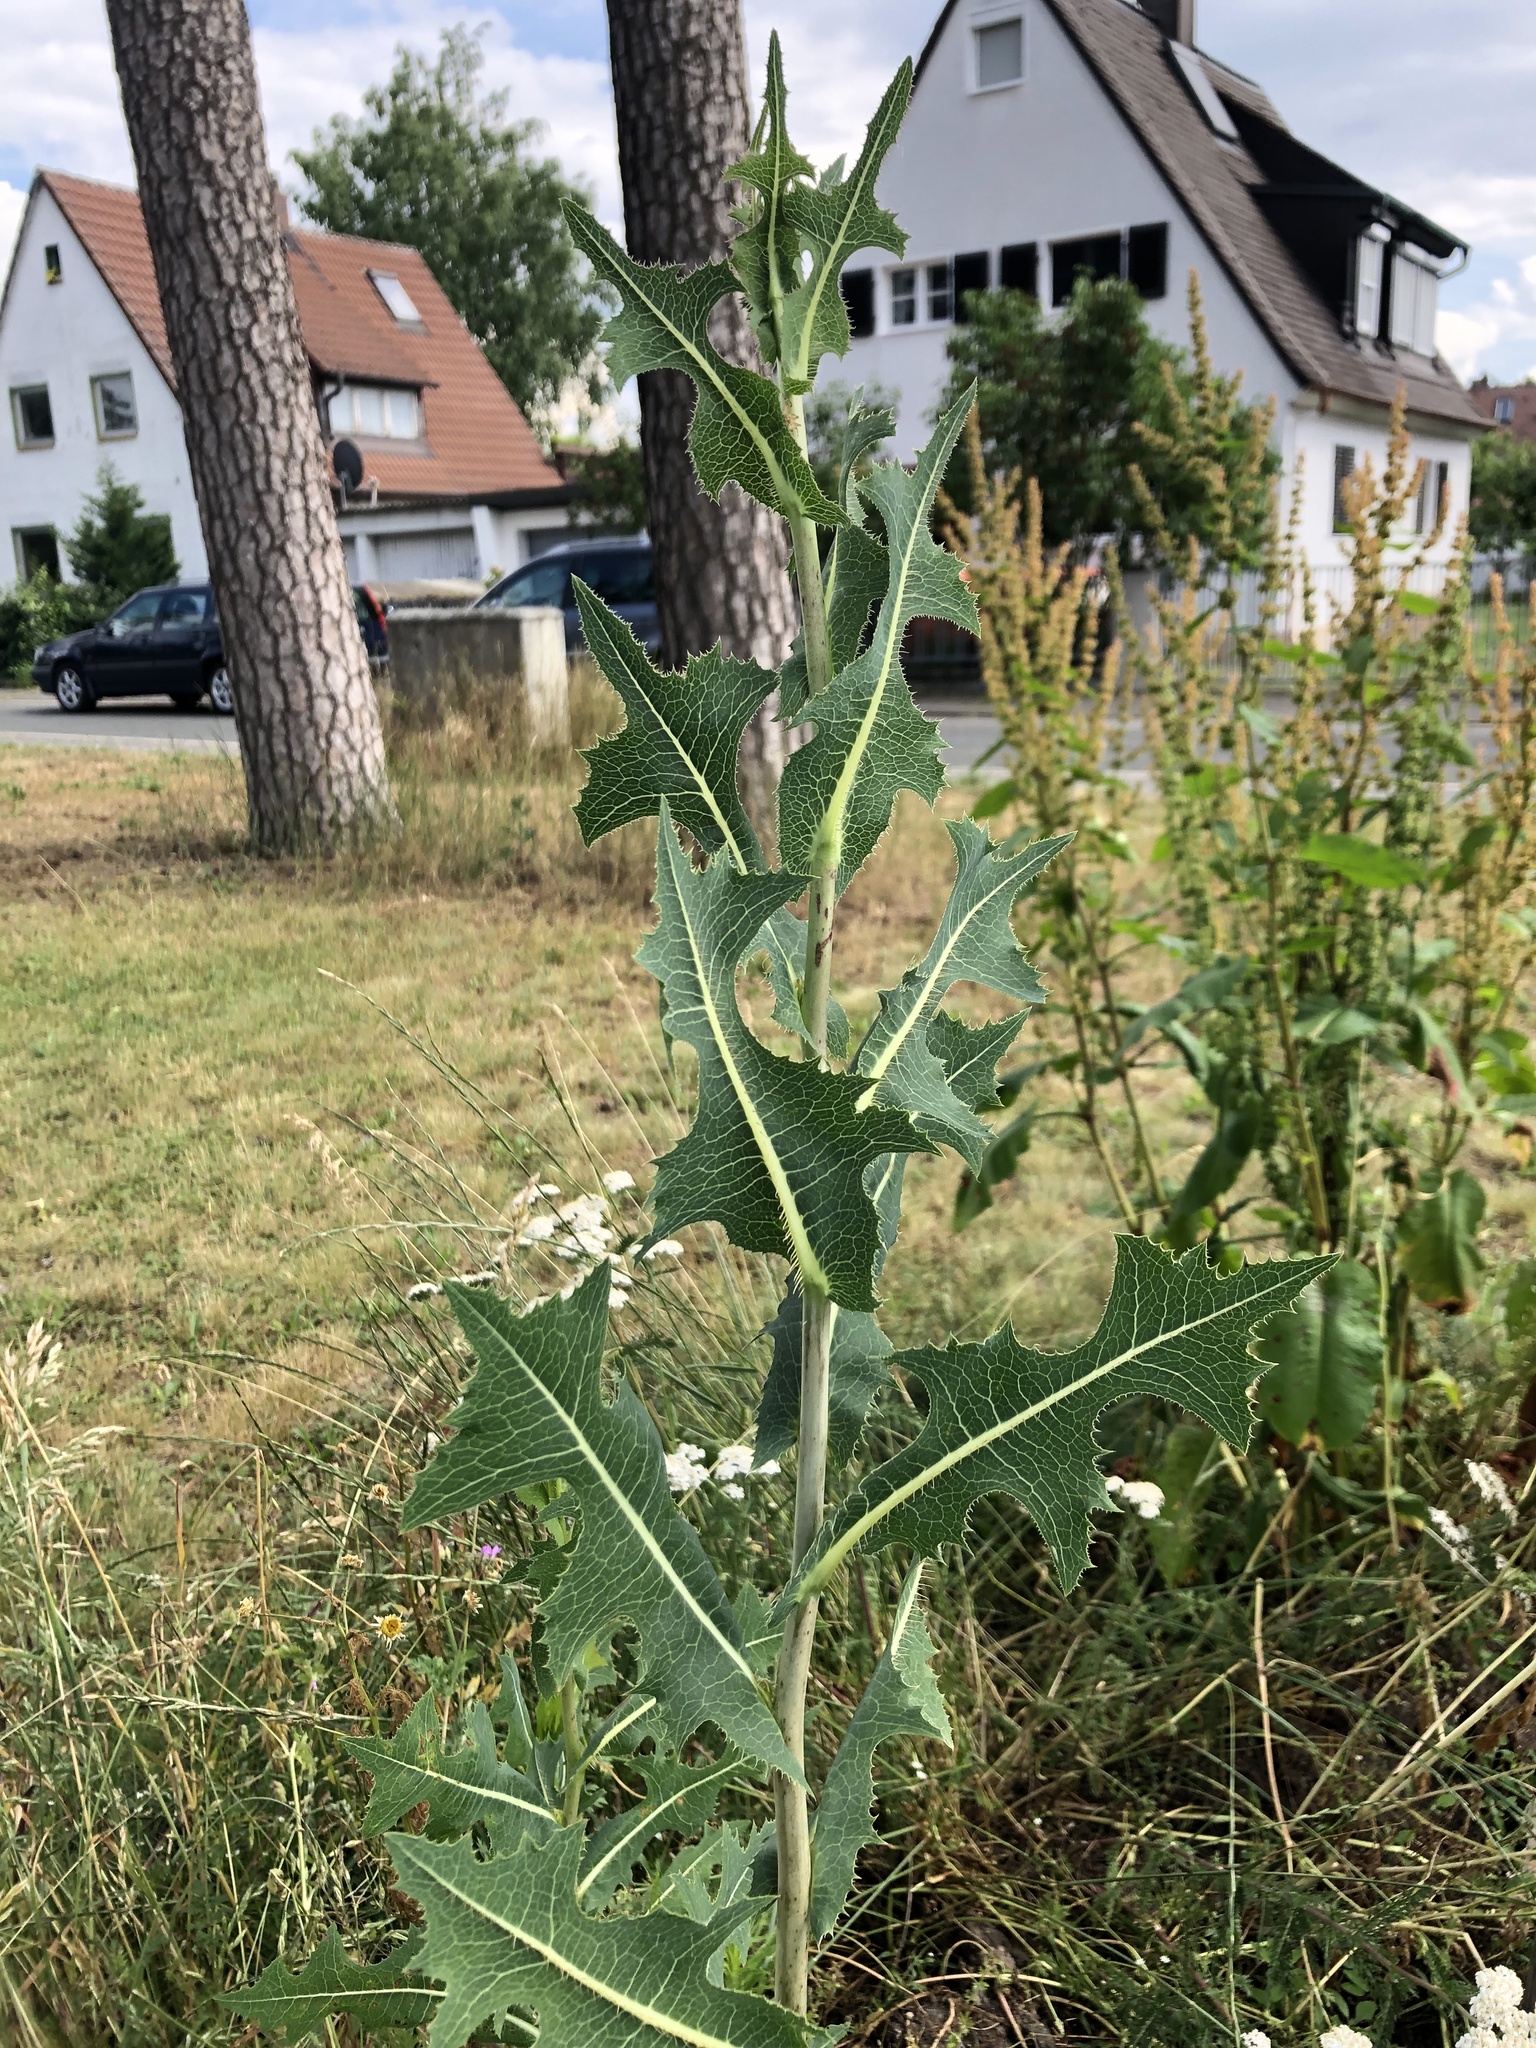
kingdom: Plantae
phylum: Tracheophyta
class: Magnoliopsida
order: Asterales
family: Asteraceae
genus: Lactuca
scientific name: Lactuca serriola
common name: Prickly lettuce
